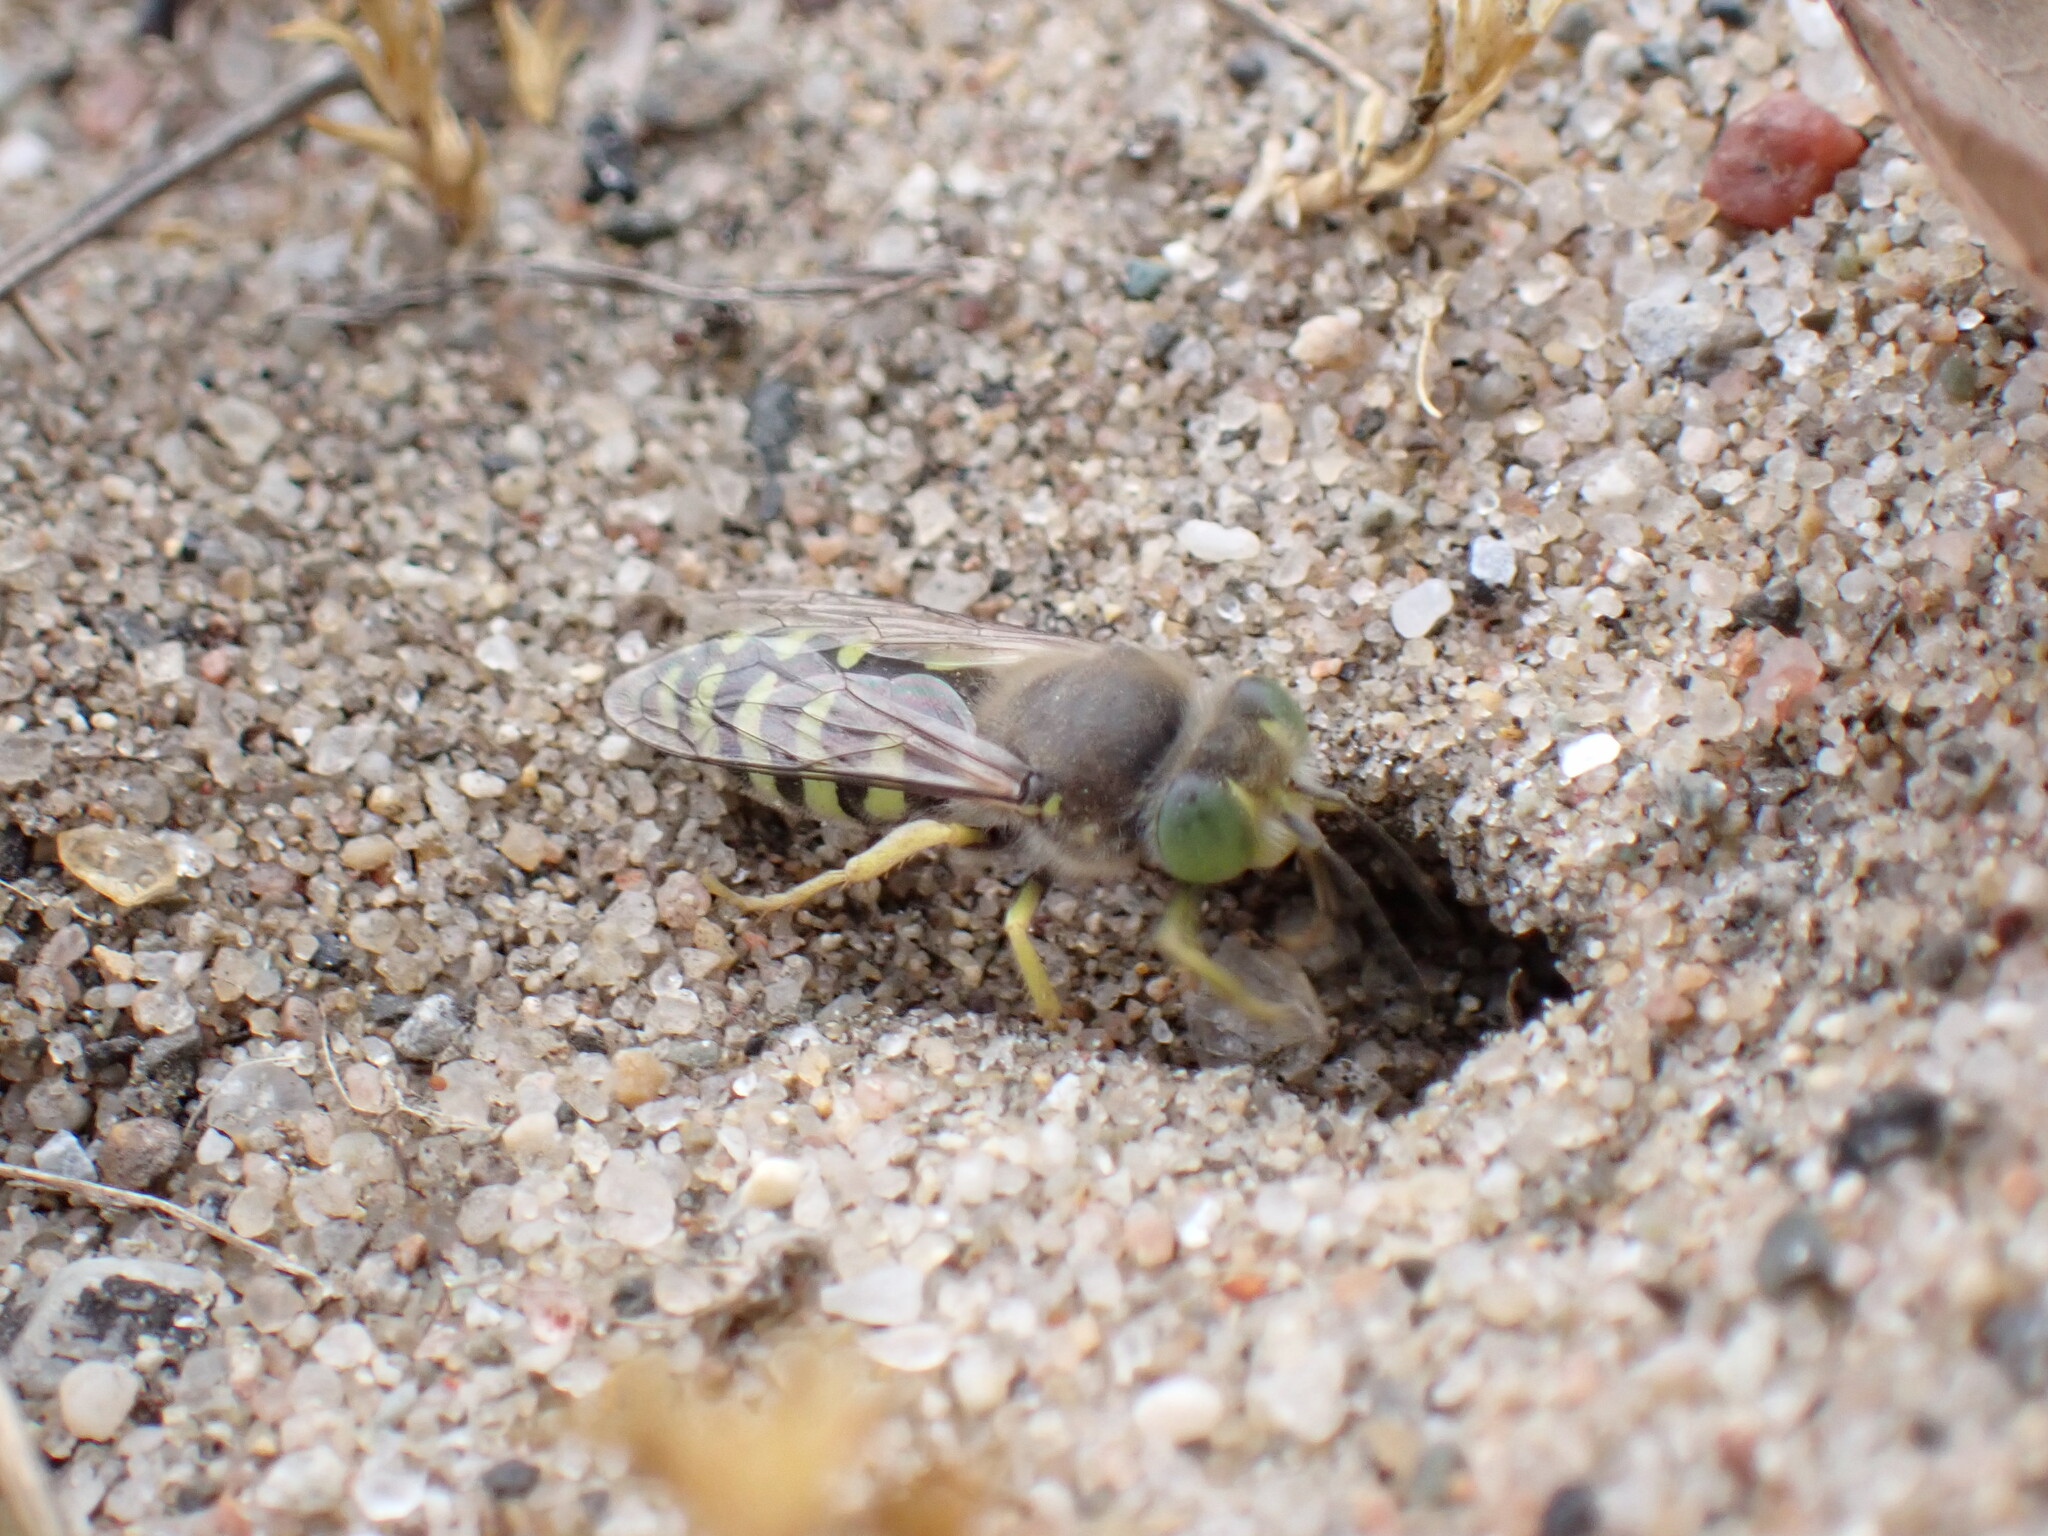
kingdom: Animalia
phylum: Arthropoda
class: Insecta
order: Hymenoptera
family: Crabronidae
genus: Bembix
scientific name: Bembix americana
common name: American sand wasp
